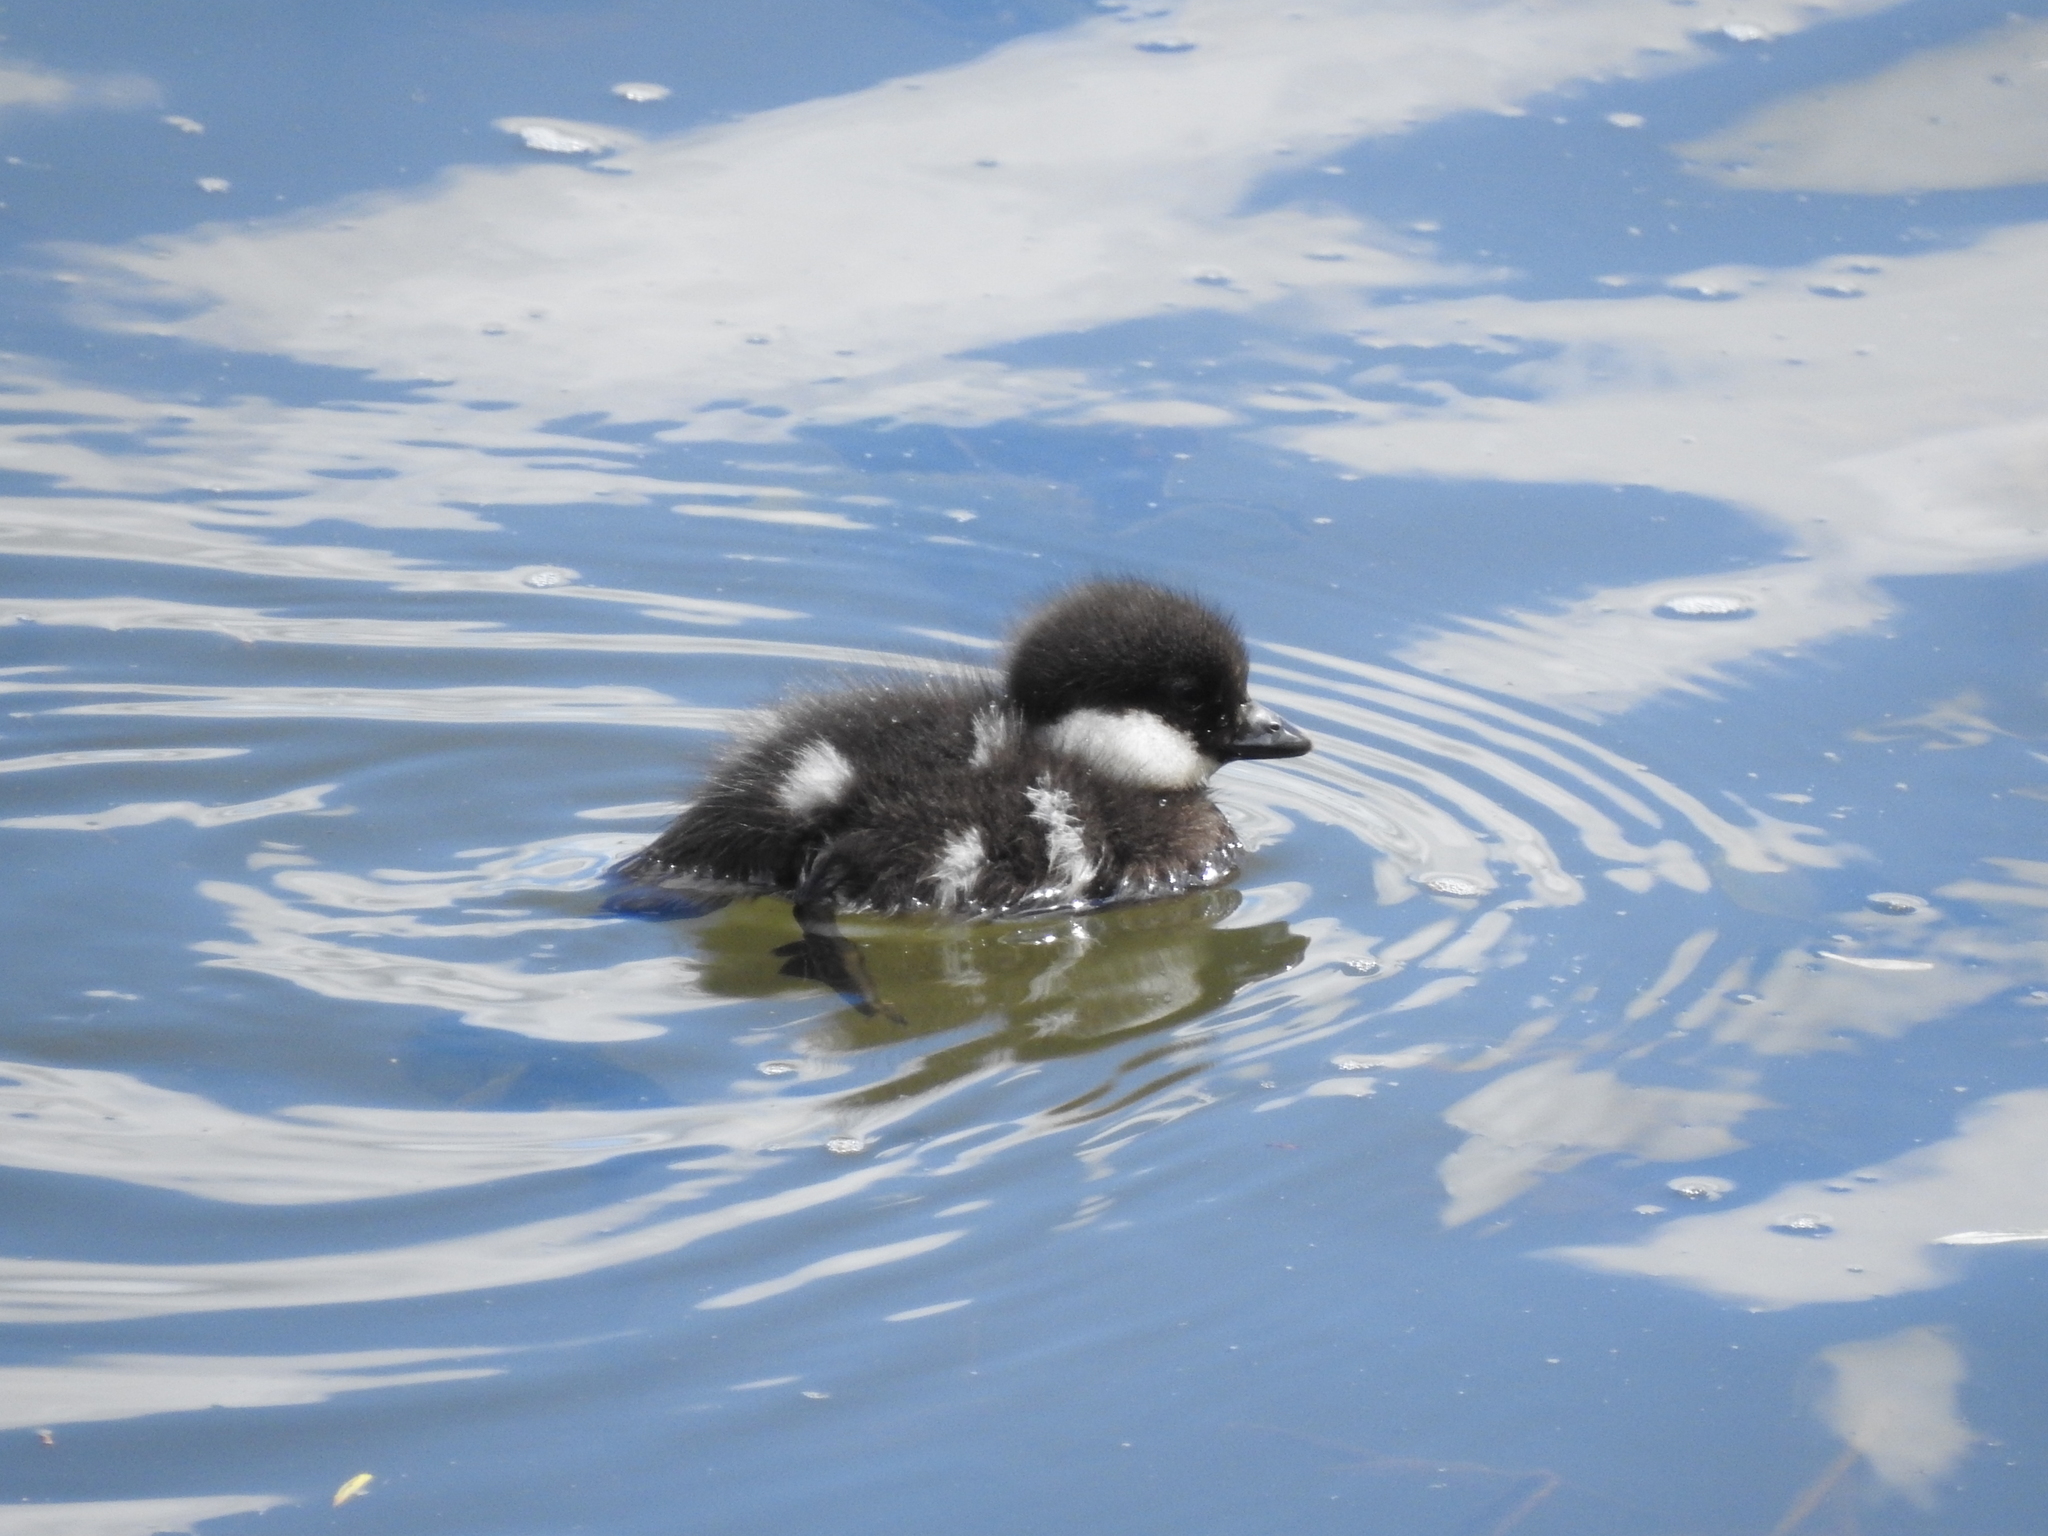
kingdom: Animalia
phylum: Chordata
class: Aves
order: Anseriformes
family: Anatidae
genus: Bucephala
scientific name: Bucephala clangula
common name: Common goldeneye
